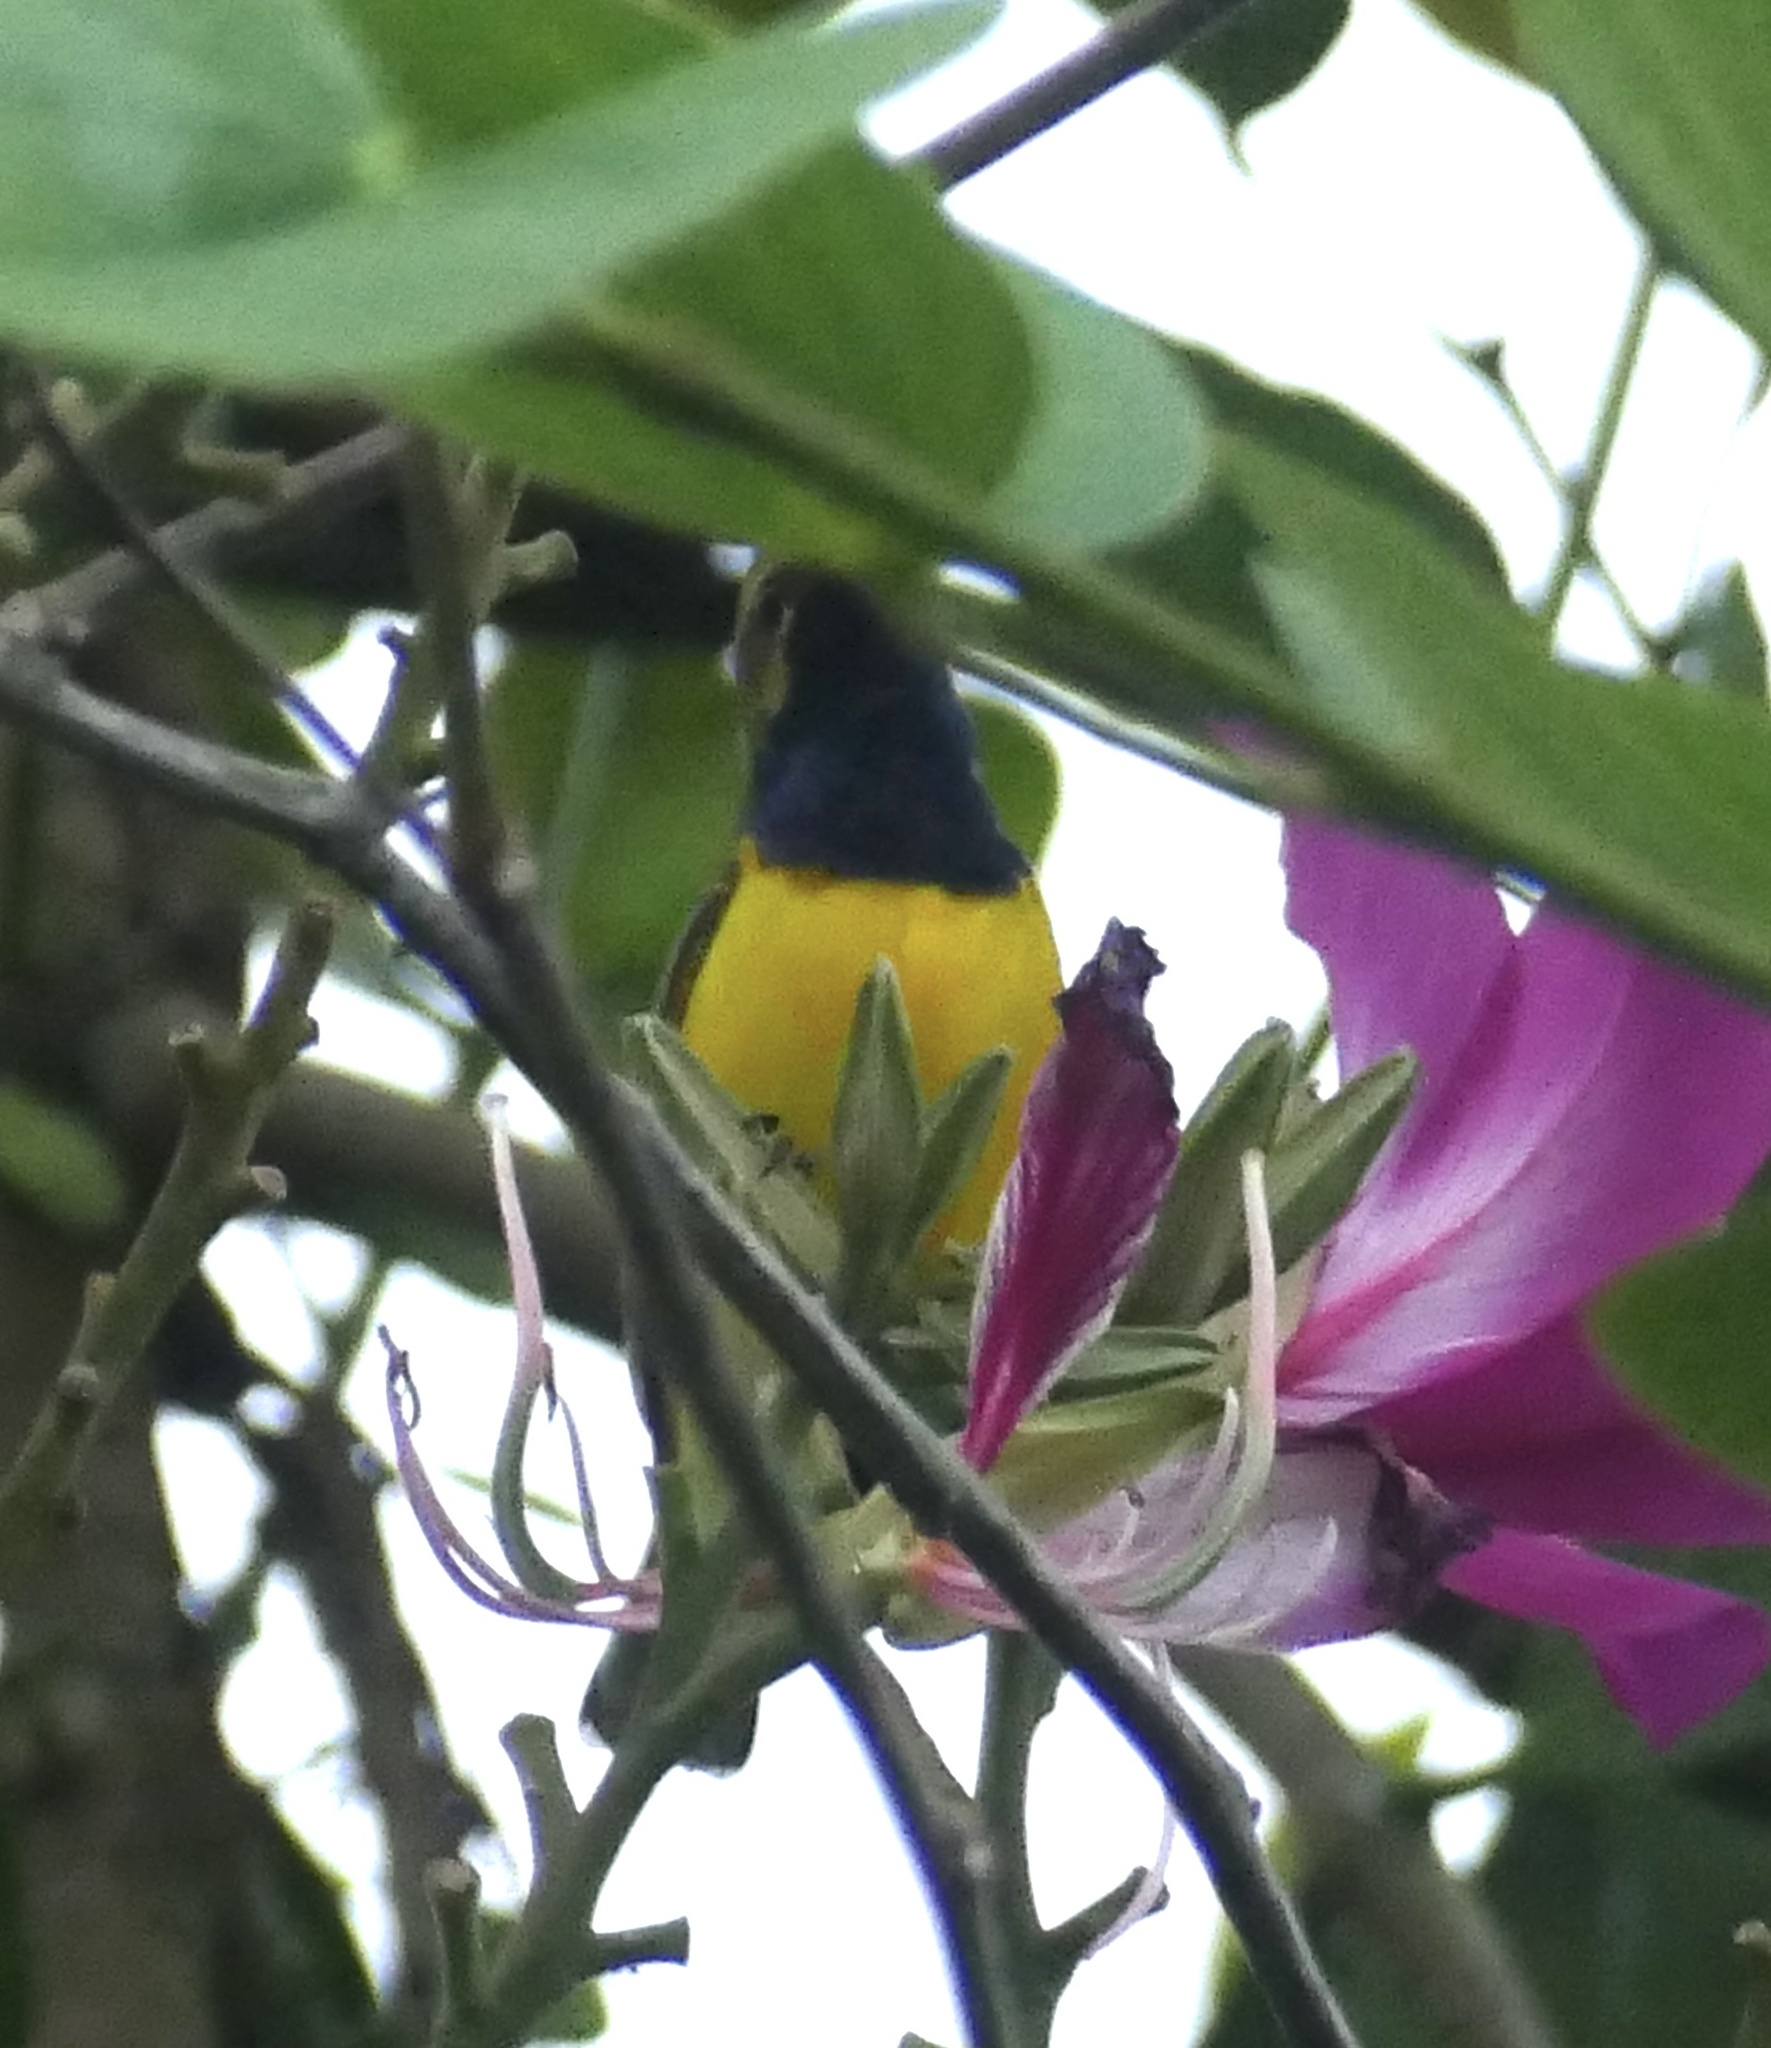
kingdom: Animalia
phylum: Chordata
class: Aves
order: Passeriformes
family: Nectariniidae
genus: Cinnyris
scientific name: Cinnyris
